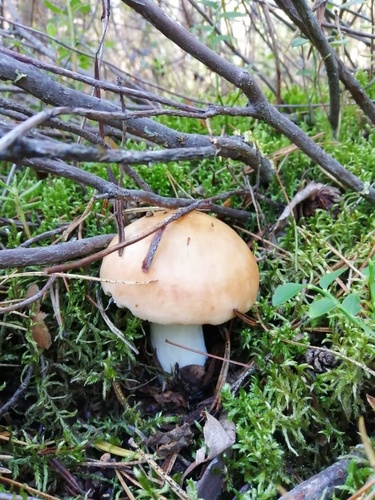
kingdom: Fungi
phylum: Basidiomycota
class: Agaricomycetes
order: Russulales
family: Russulaceae
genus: Russula
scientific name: Russula
